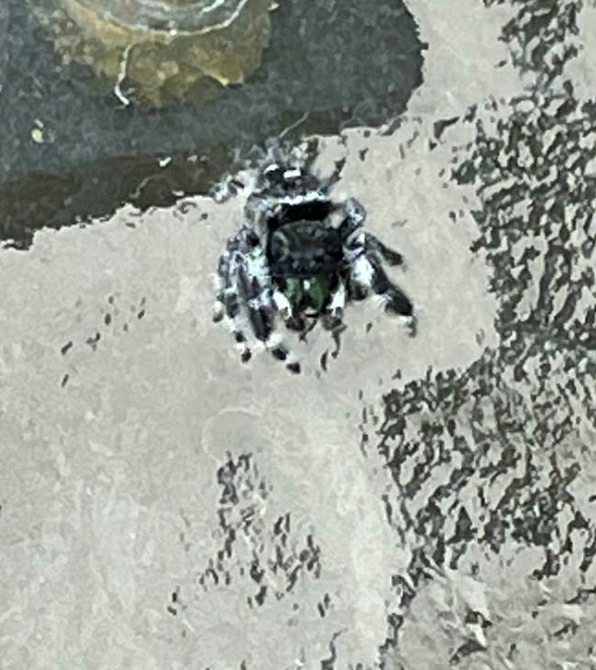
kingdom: Animalia
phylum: Arthropoda
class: Arachnida
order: Araneae
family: Salticidae
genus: Phidippus
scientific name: Phidippus audax
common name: Bold jumper
